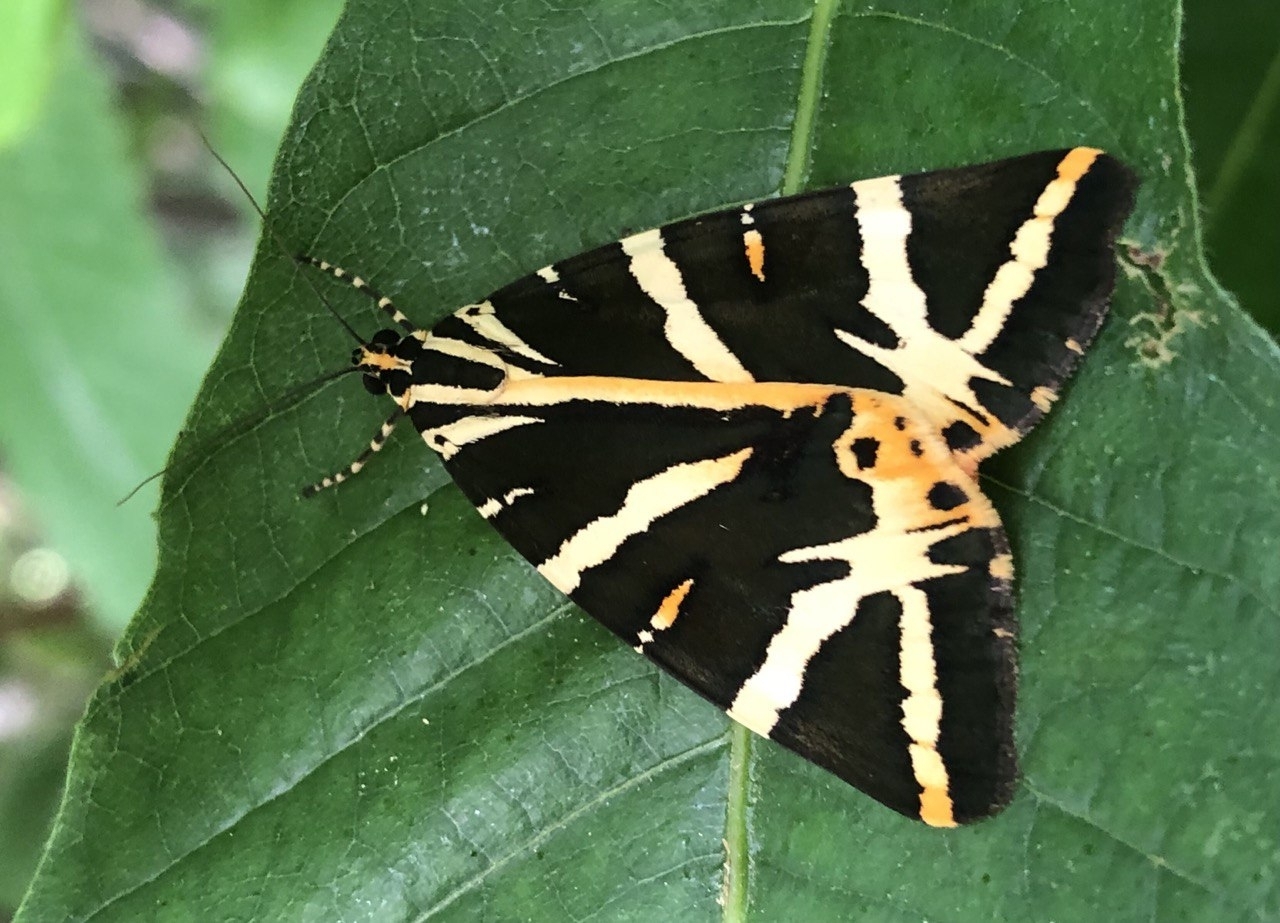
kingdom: Animalia
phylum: Arthropoda
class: Insecta
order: Lepidoptera
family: Erebidae
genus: Euplagia
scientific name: Euplagia quadripunctaria
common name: Jersey tiger
